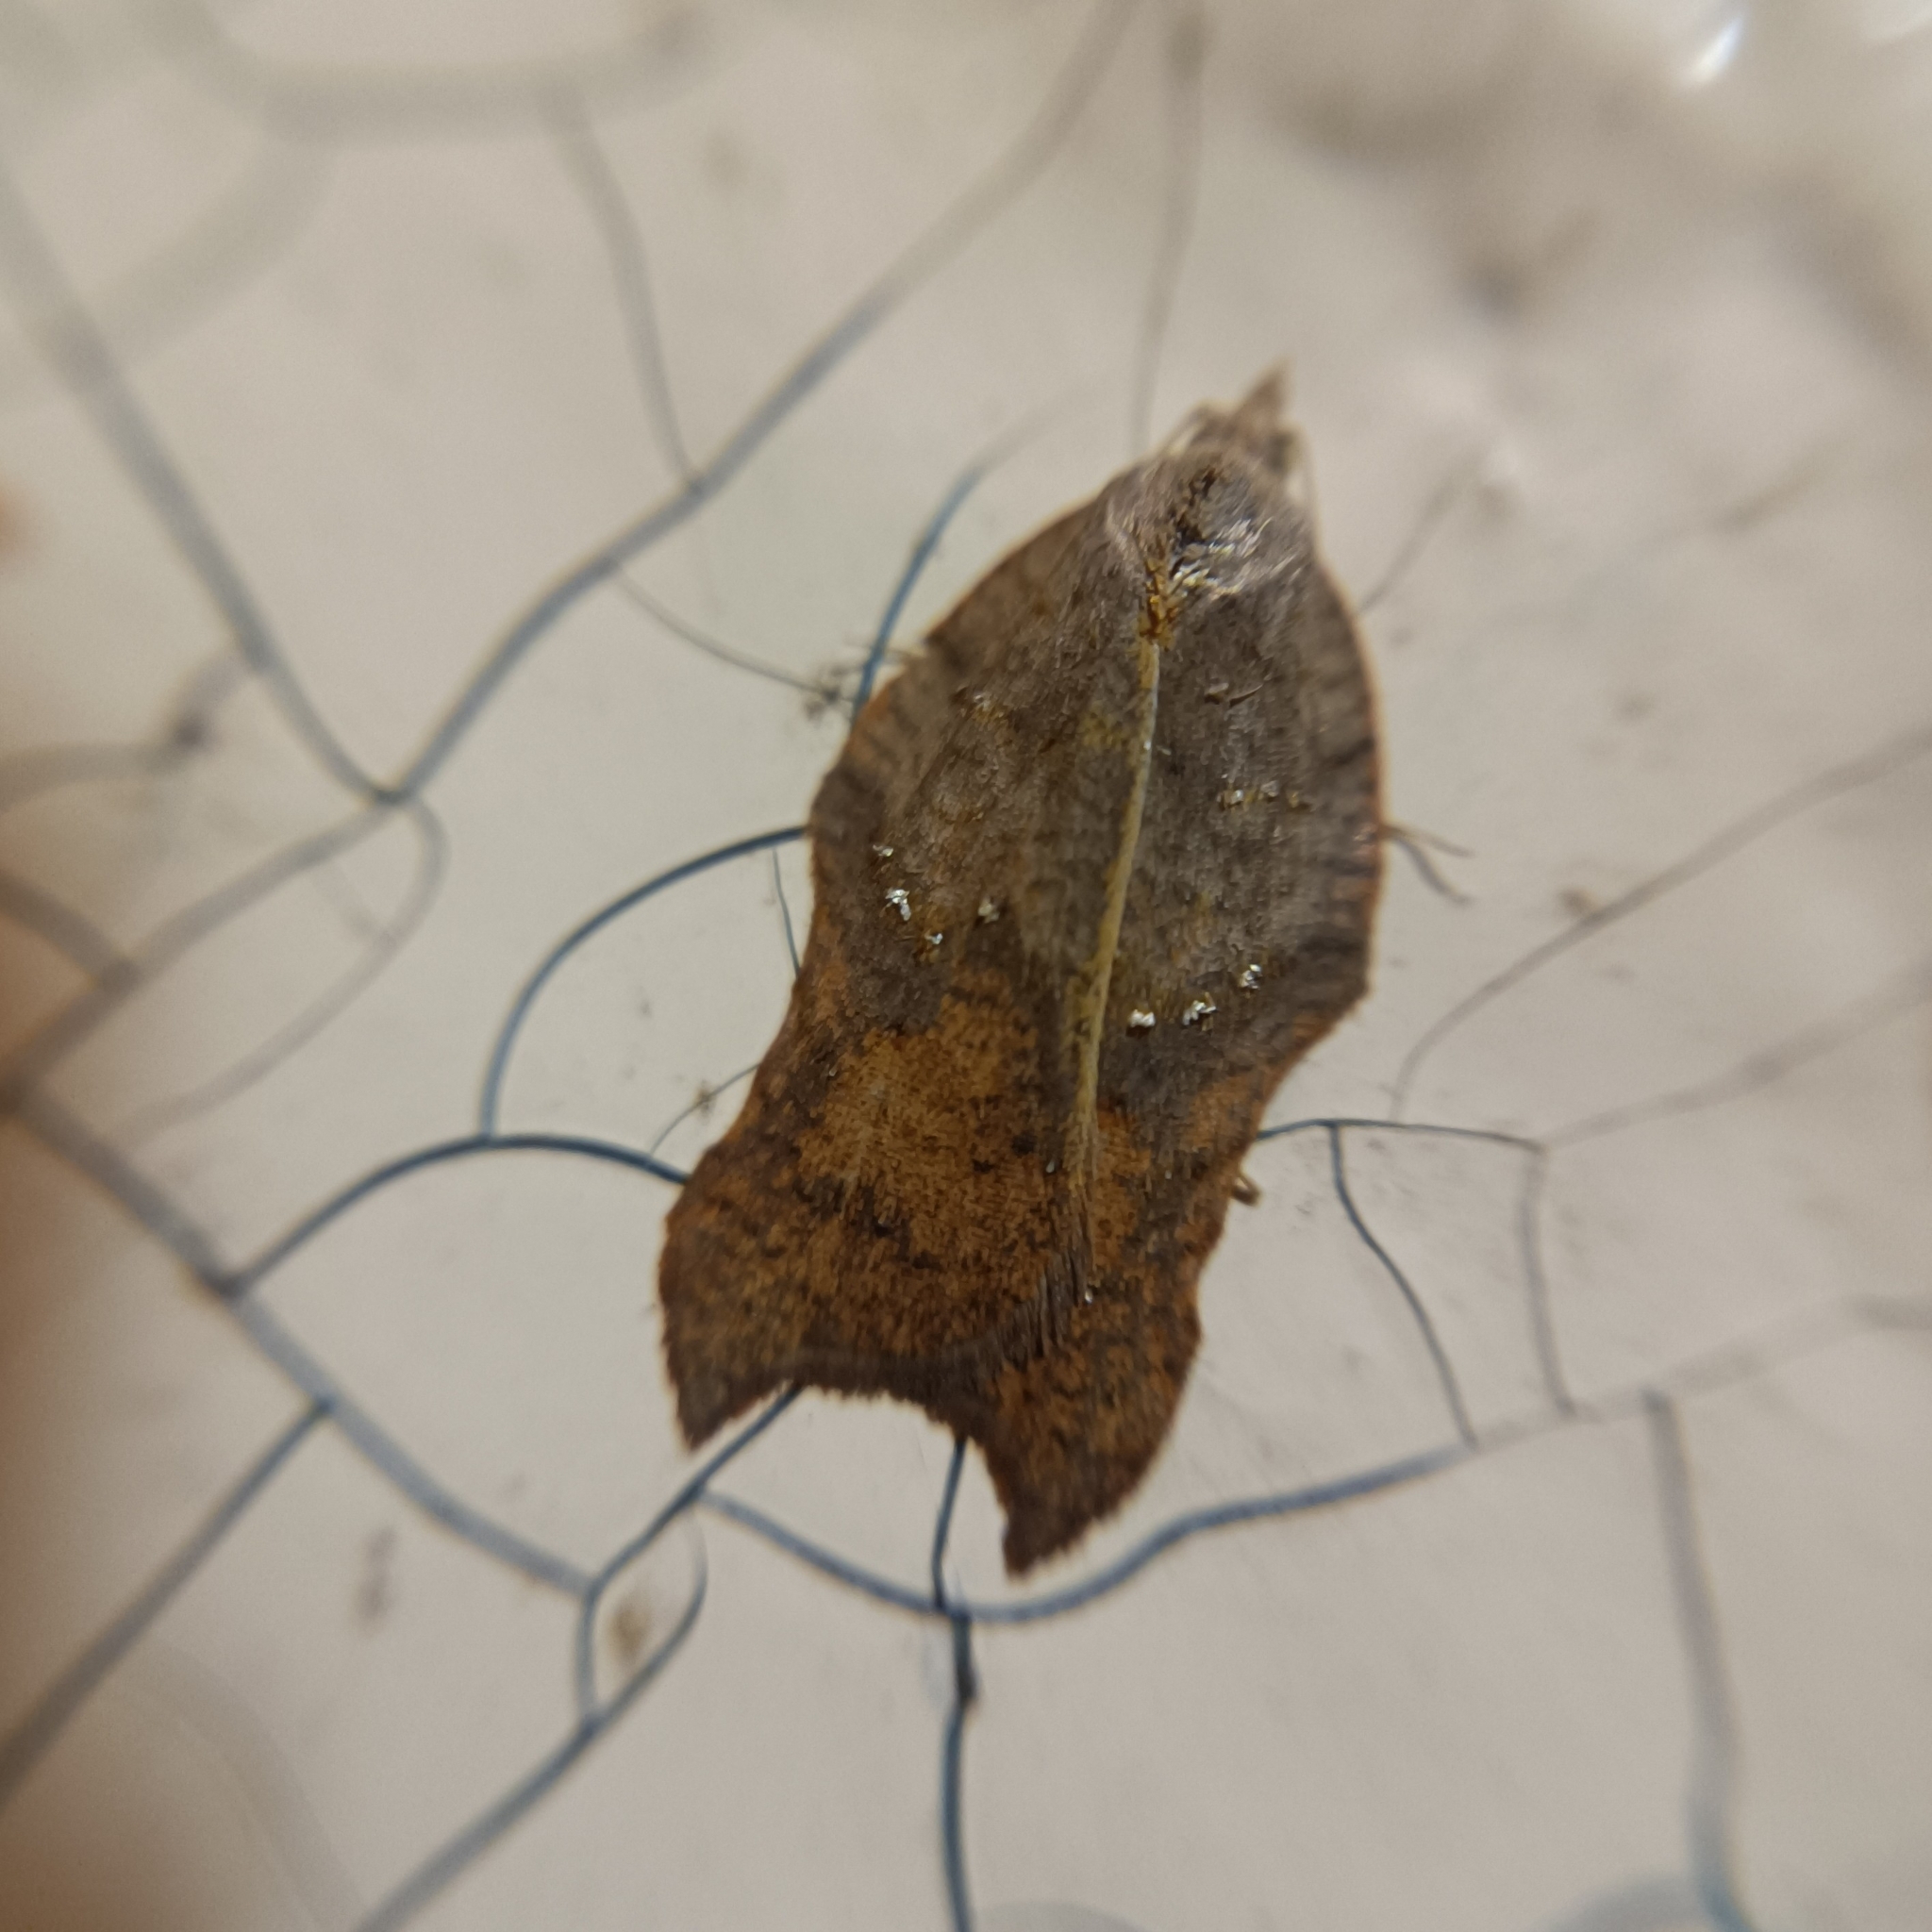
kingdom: Animalia
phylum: Arthropoda
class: Insecta
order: Lepidoptera
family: Tortricidae
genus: Acleris
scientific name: Acleris effractana
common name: Hook-winged tortrix moth
